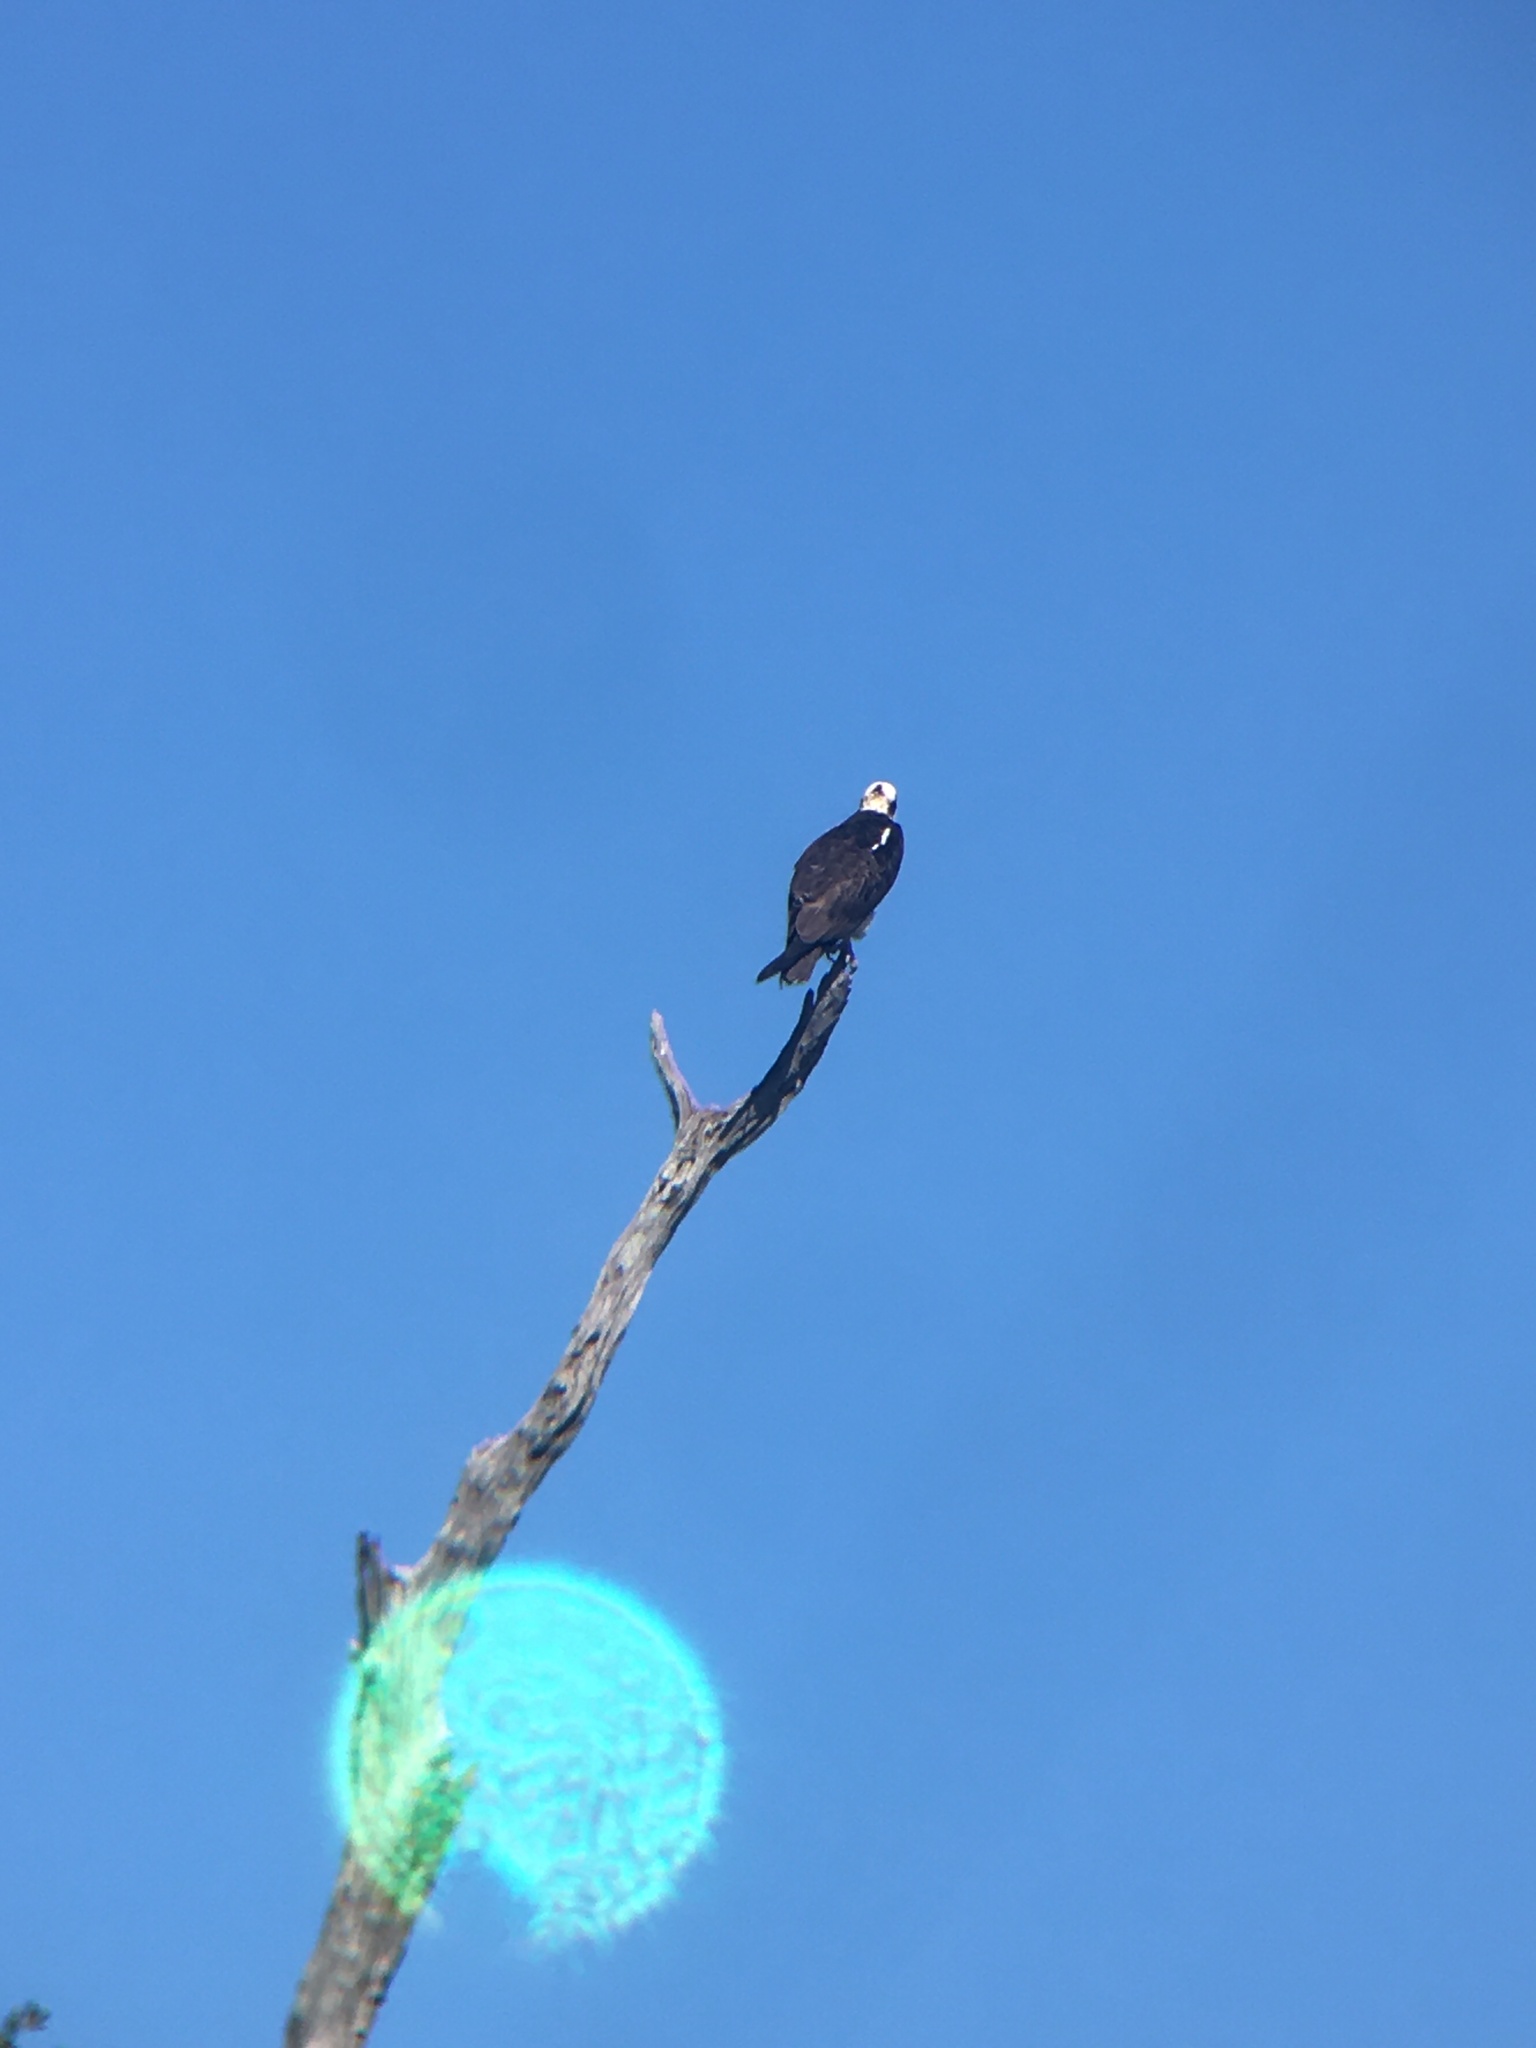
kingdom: Animalia
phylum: Chordata
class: Aves
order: Accipitriformes
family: Pandionidae
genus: Pandion
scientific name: Pandion haliaetus
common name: Osprey
